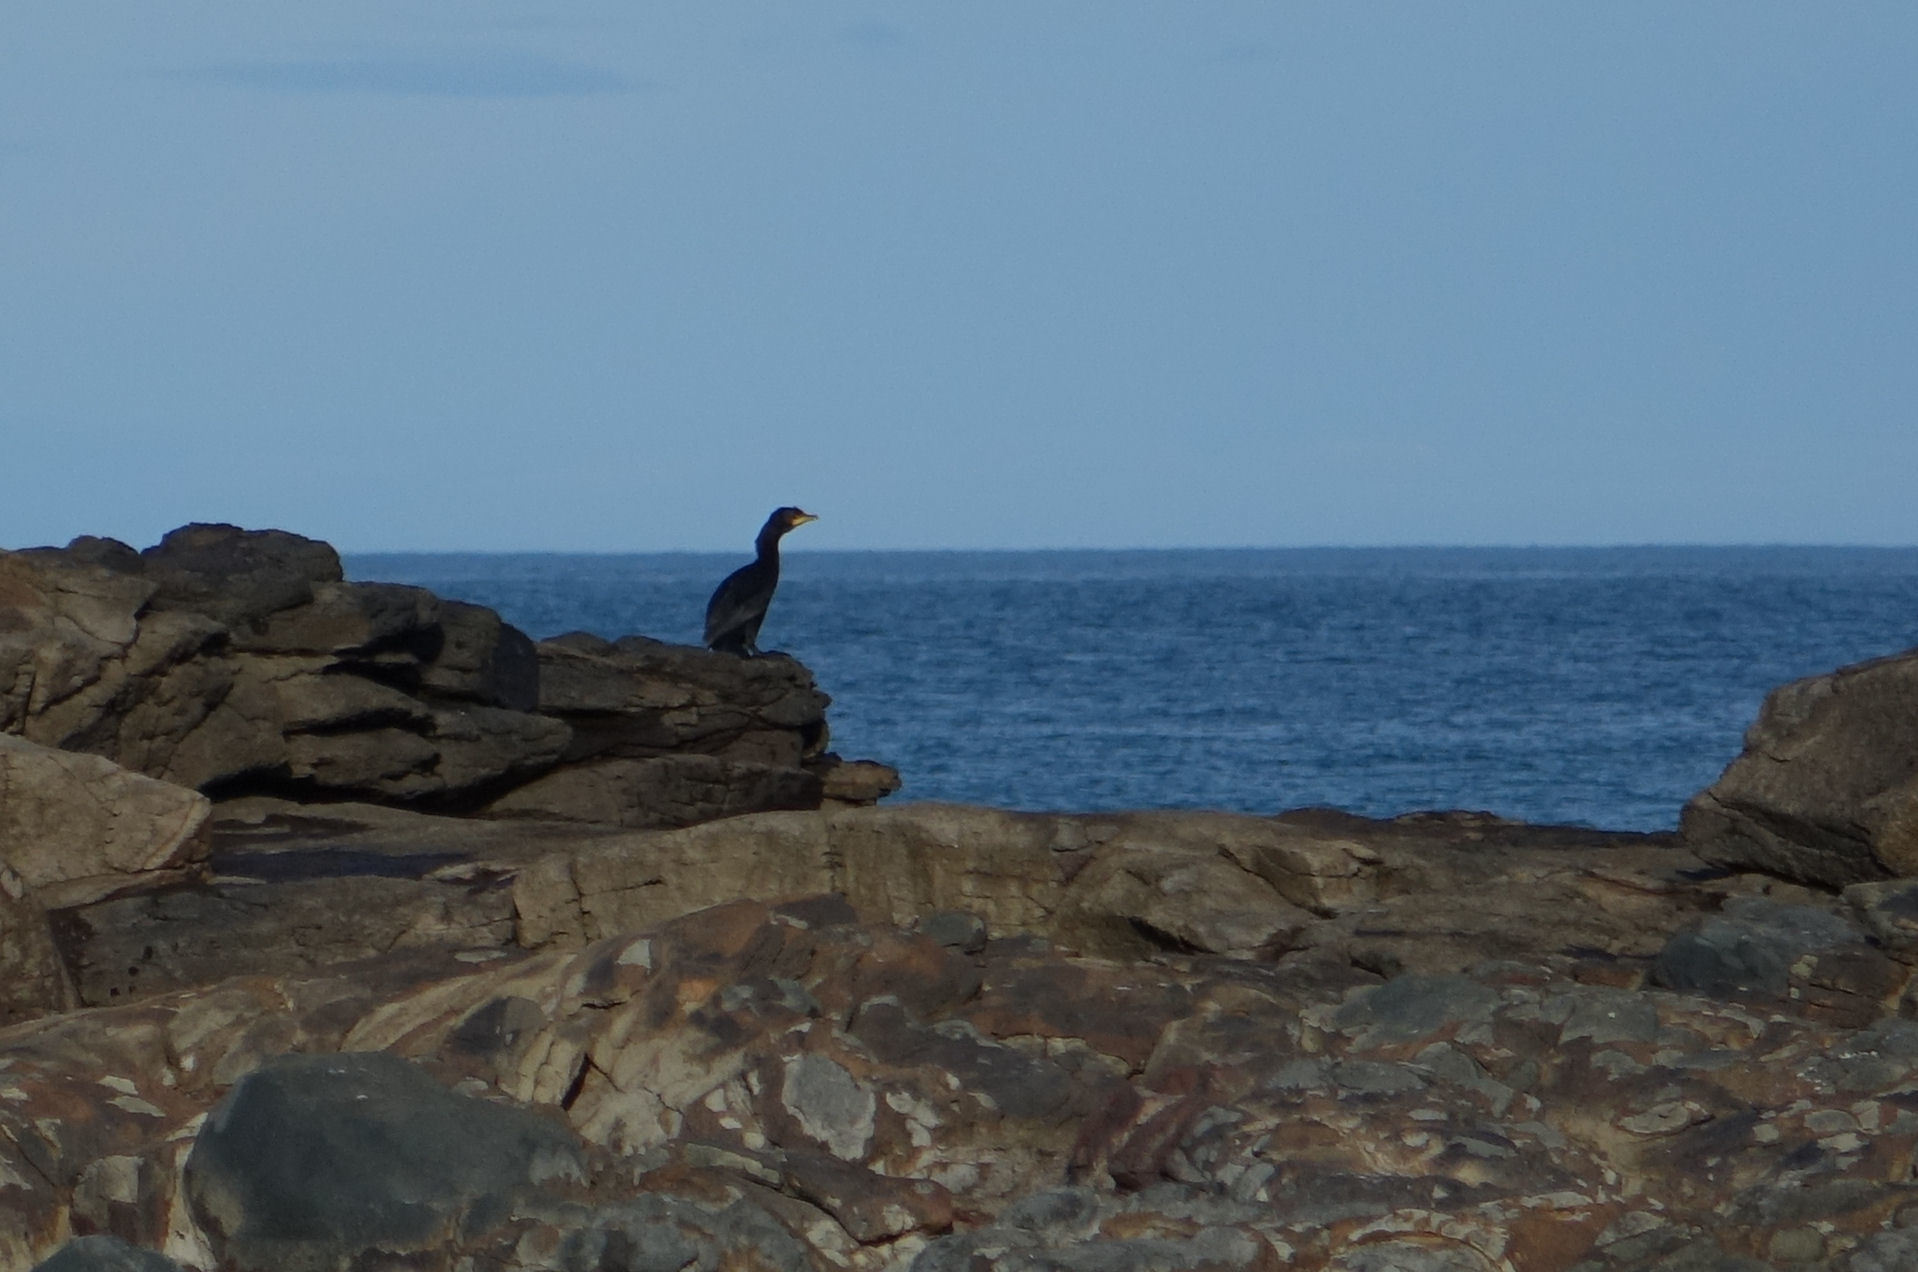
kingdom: Animalia
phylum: Chordata
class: Aves
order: Suliformes
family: Phalacrocoracidae
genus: Microcarbo
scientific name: Microcarbo melanoleucos
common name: Little pied cormorant
